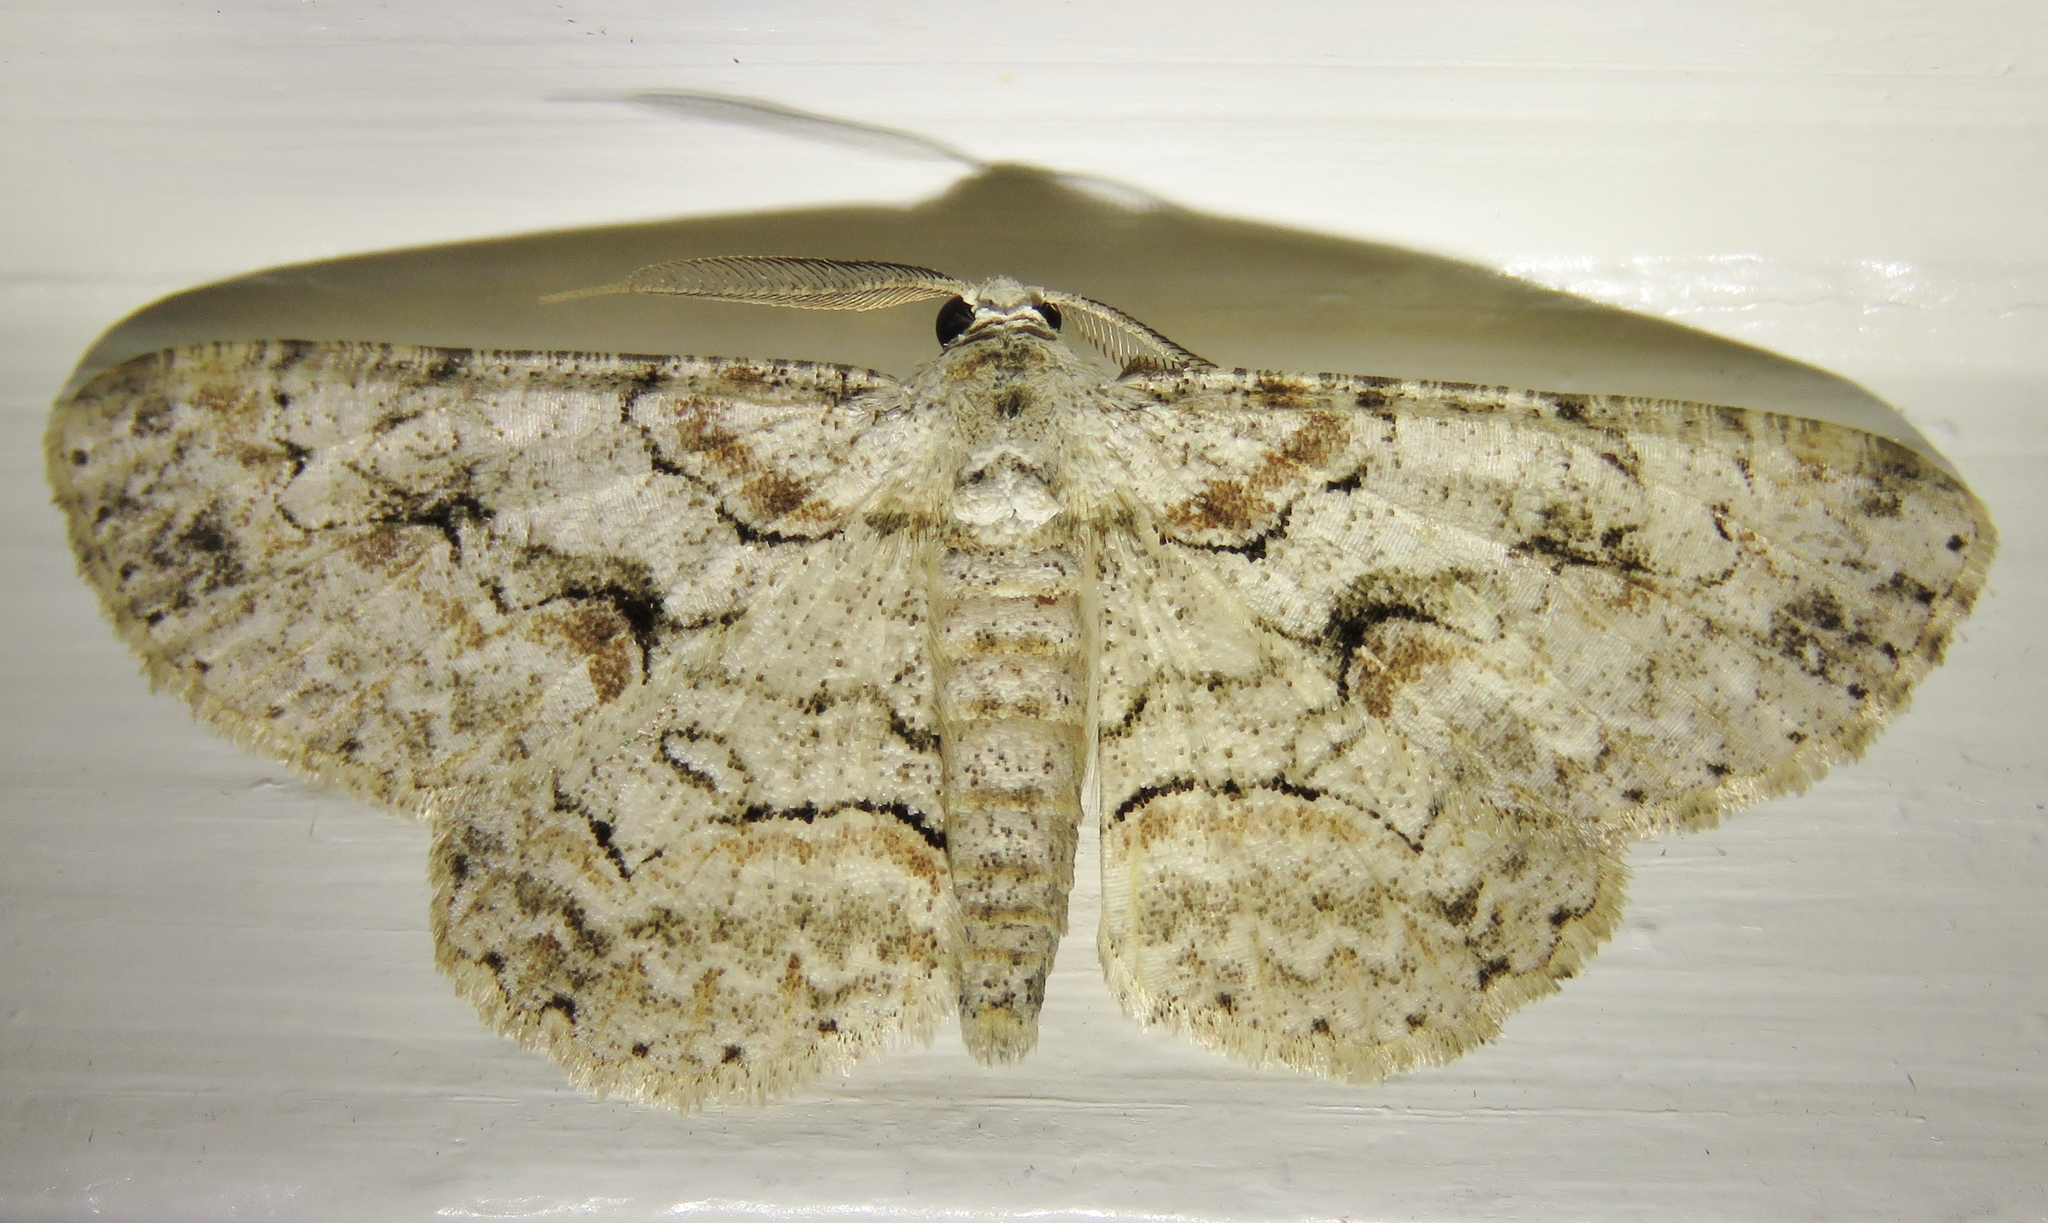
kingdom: Animalia
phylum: Arthropoda
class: Insecta
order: Lepidoptera
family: Geometridae
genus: Iridopsis
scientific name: Iridopsis defectaria
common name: Brown-shaded gray
